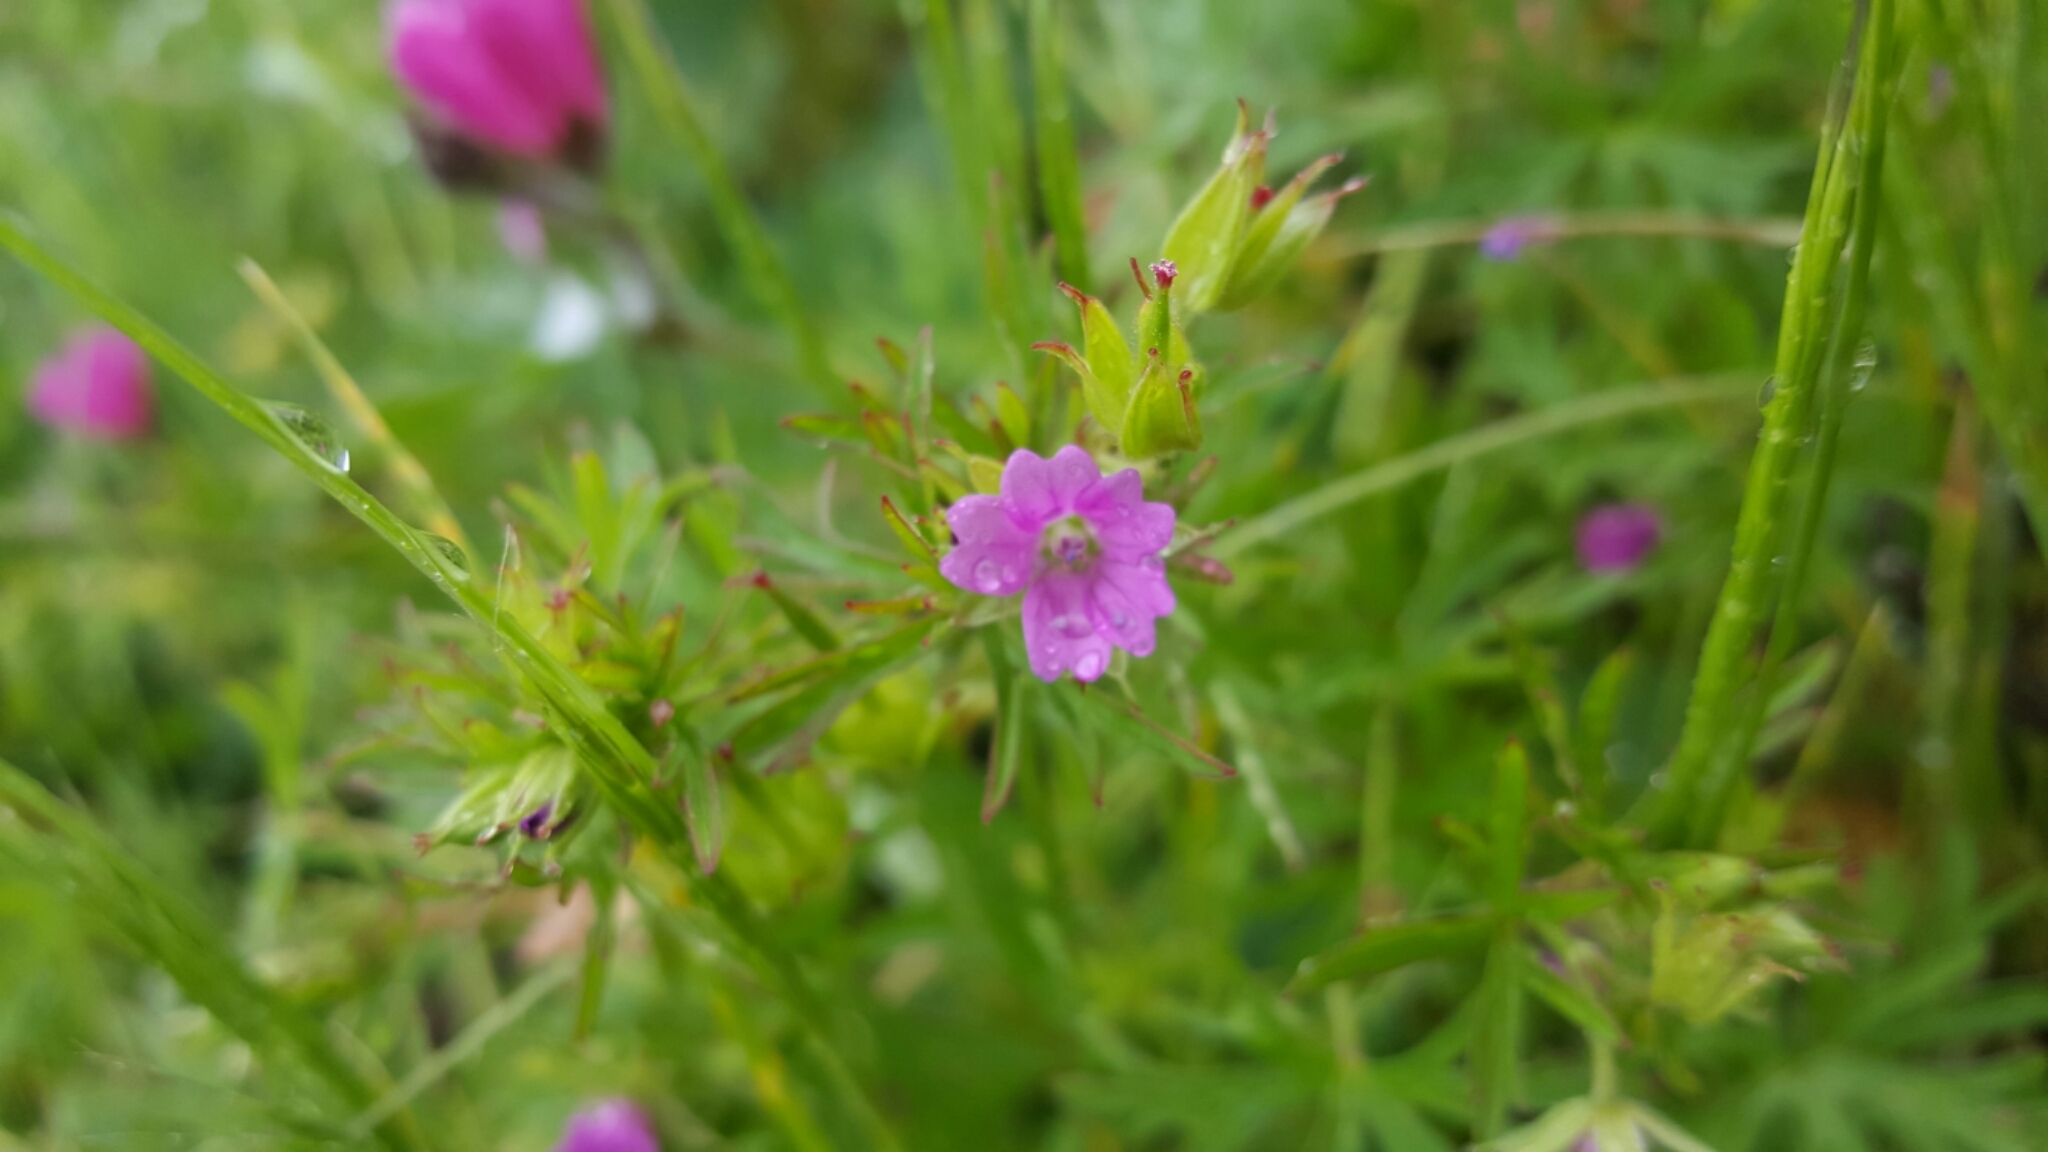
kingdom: Plantae
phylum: Tracheophyta
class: Magnoliopsida
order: Geraniales
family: Geraniaceae
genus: Geranium
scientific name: Geranium dissectum
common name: Cut-leaved crane's-bill
